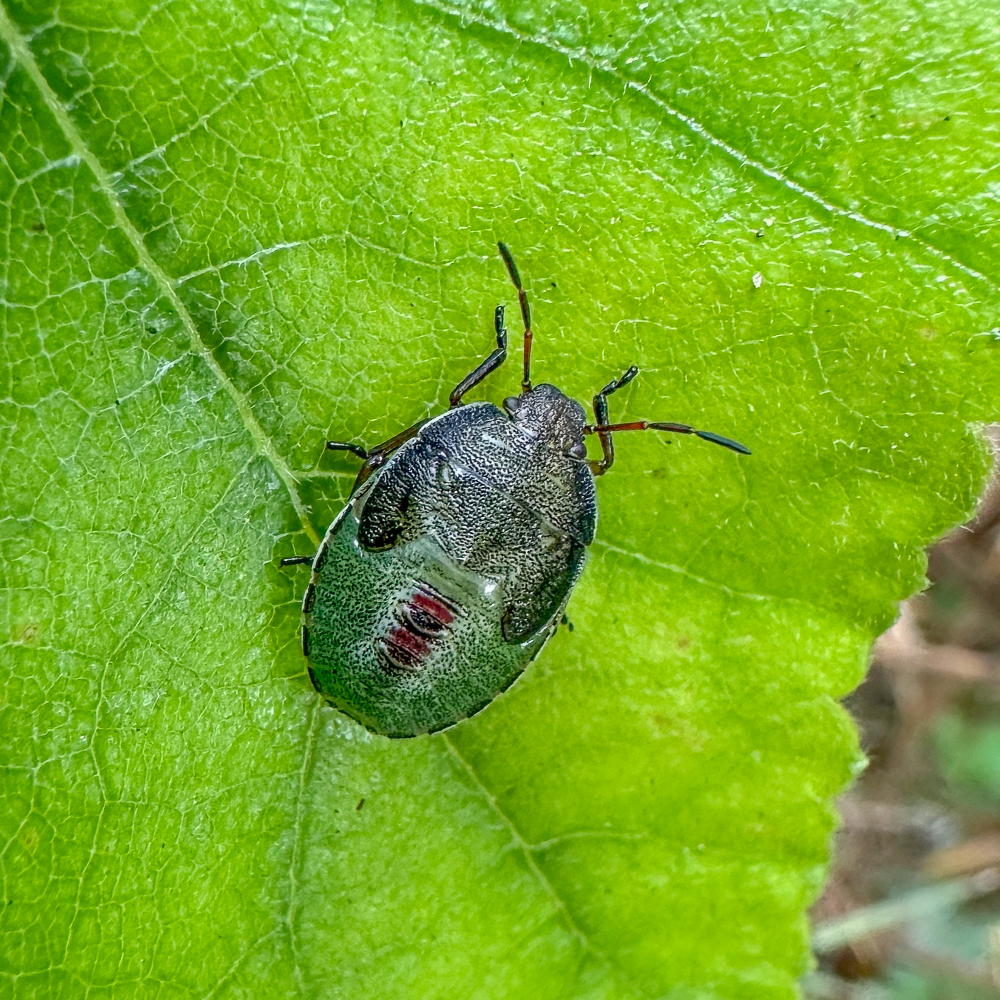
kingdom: Animalia
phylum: Arthropoda
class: Insecta
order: Hemiptera
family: Pentatomidae
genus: Piezodorus
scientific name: Piezodorus lituratus
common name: Stink bug
